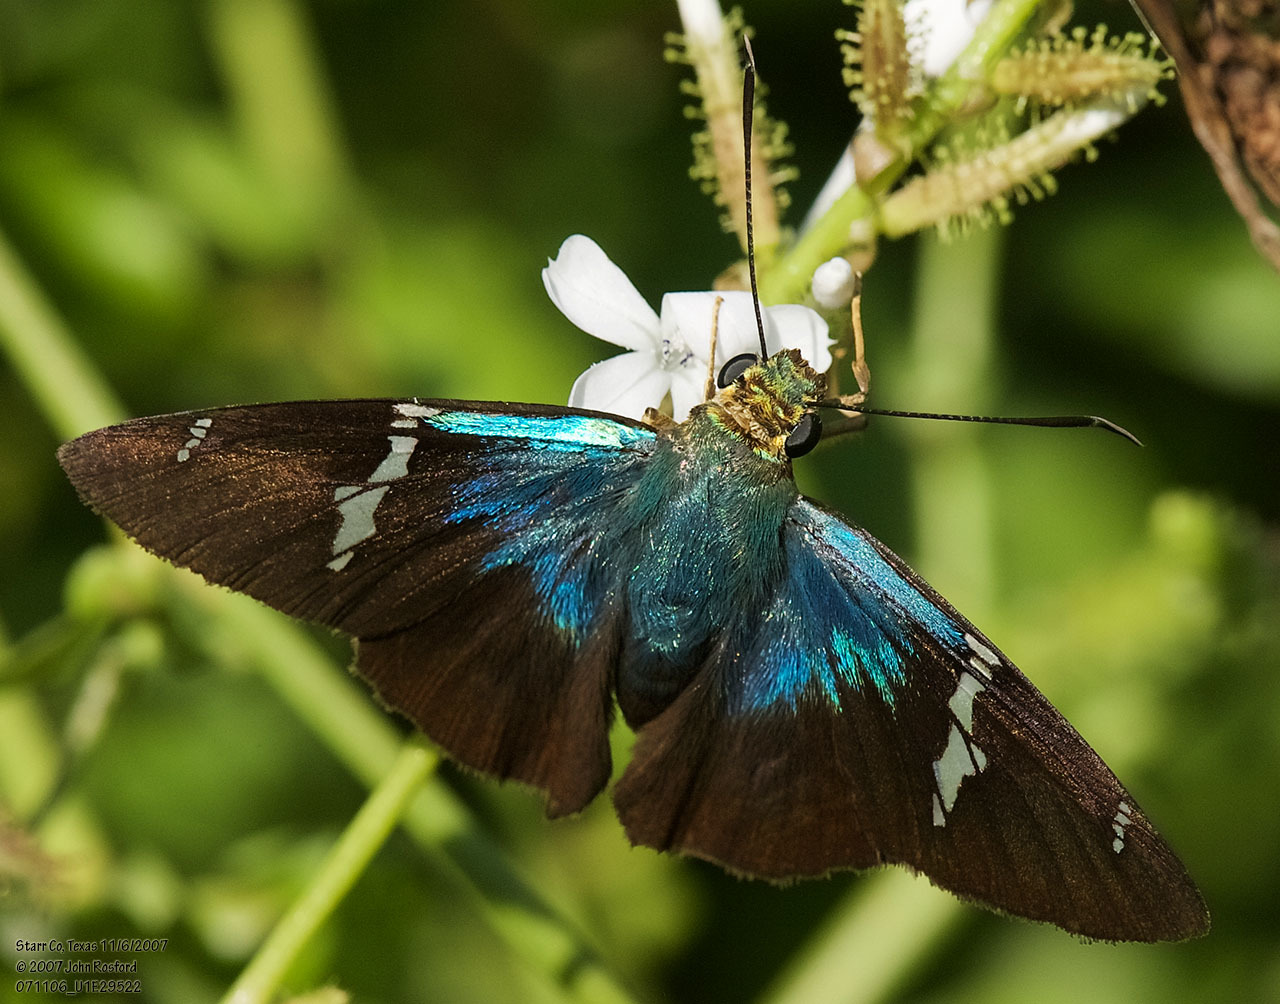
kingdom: Animalia
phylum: Arthropoda
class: Insecta
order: Lepidoptera
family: Hesperiidae
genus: Astraptes
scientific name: Astraptes fulgerator
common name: Two-barred flasher
